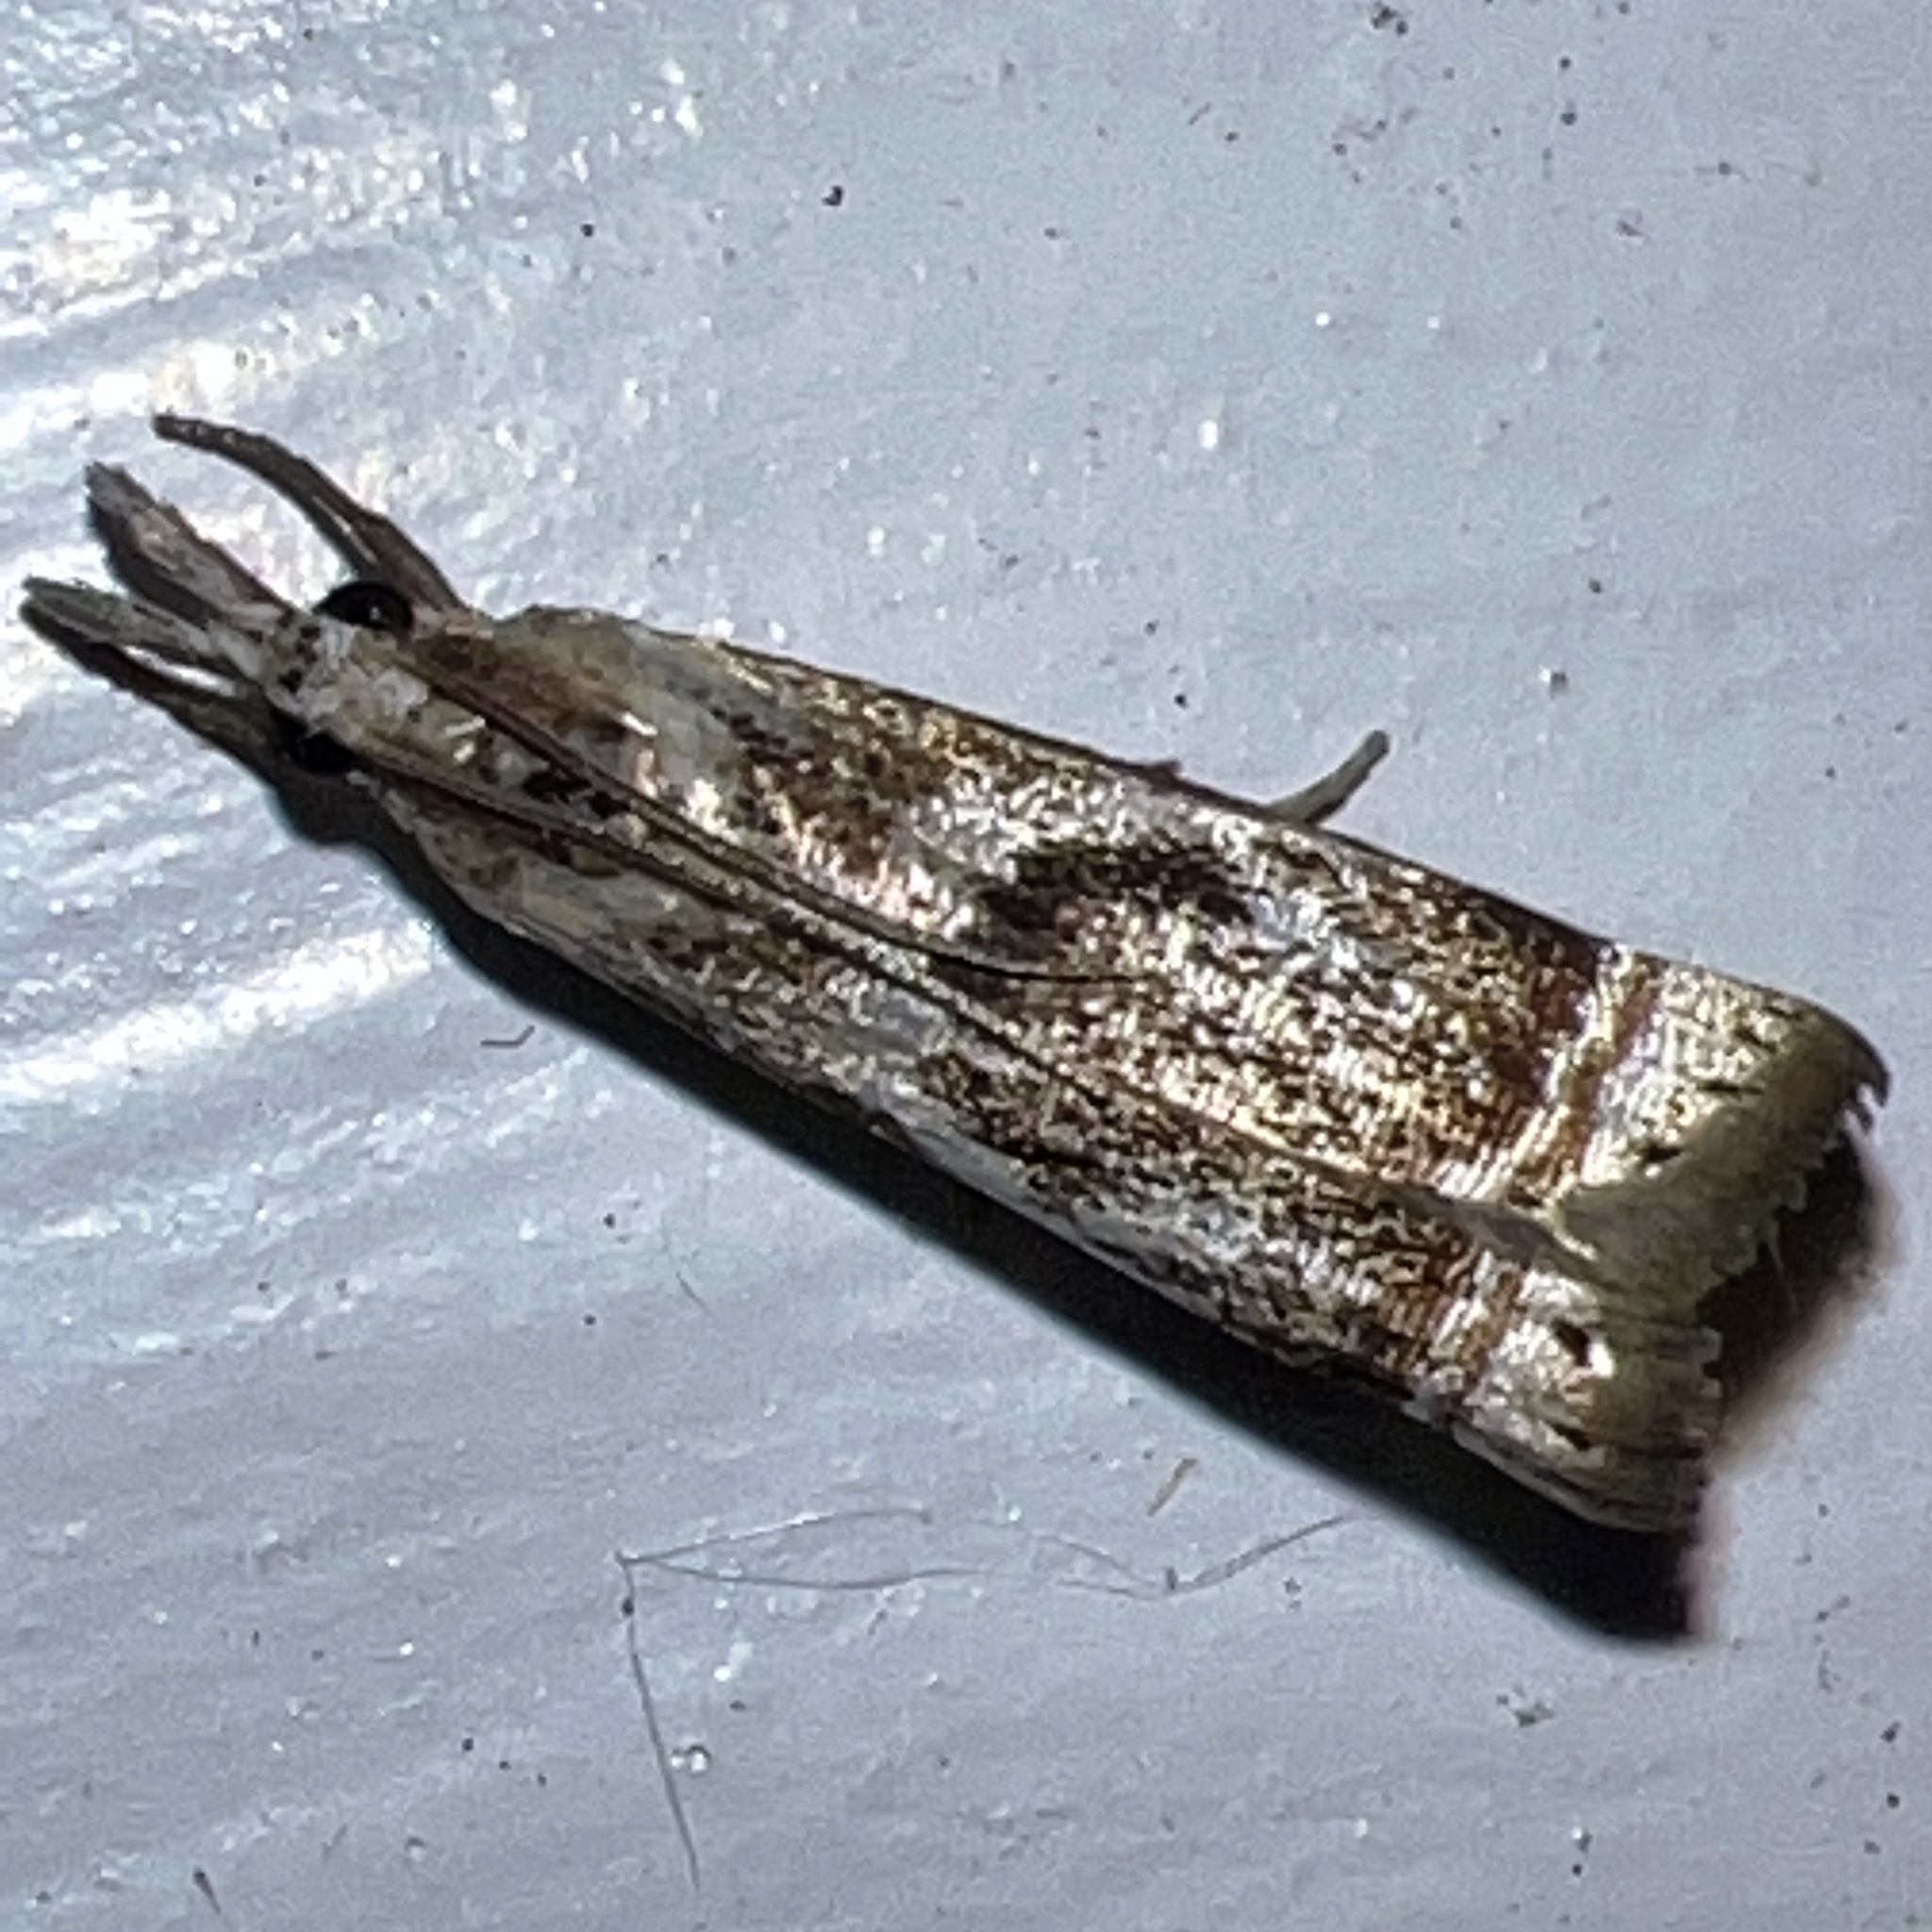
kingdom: Animalia
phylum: Arthropoda
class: Insecta
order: Lepidoptera
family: Crambidae
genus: Microcrambus
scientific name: Microcrambus elegans
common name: Elegant grass-veneer
